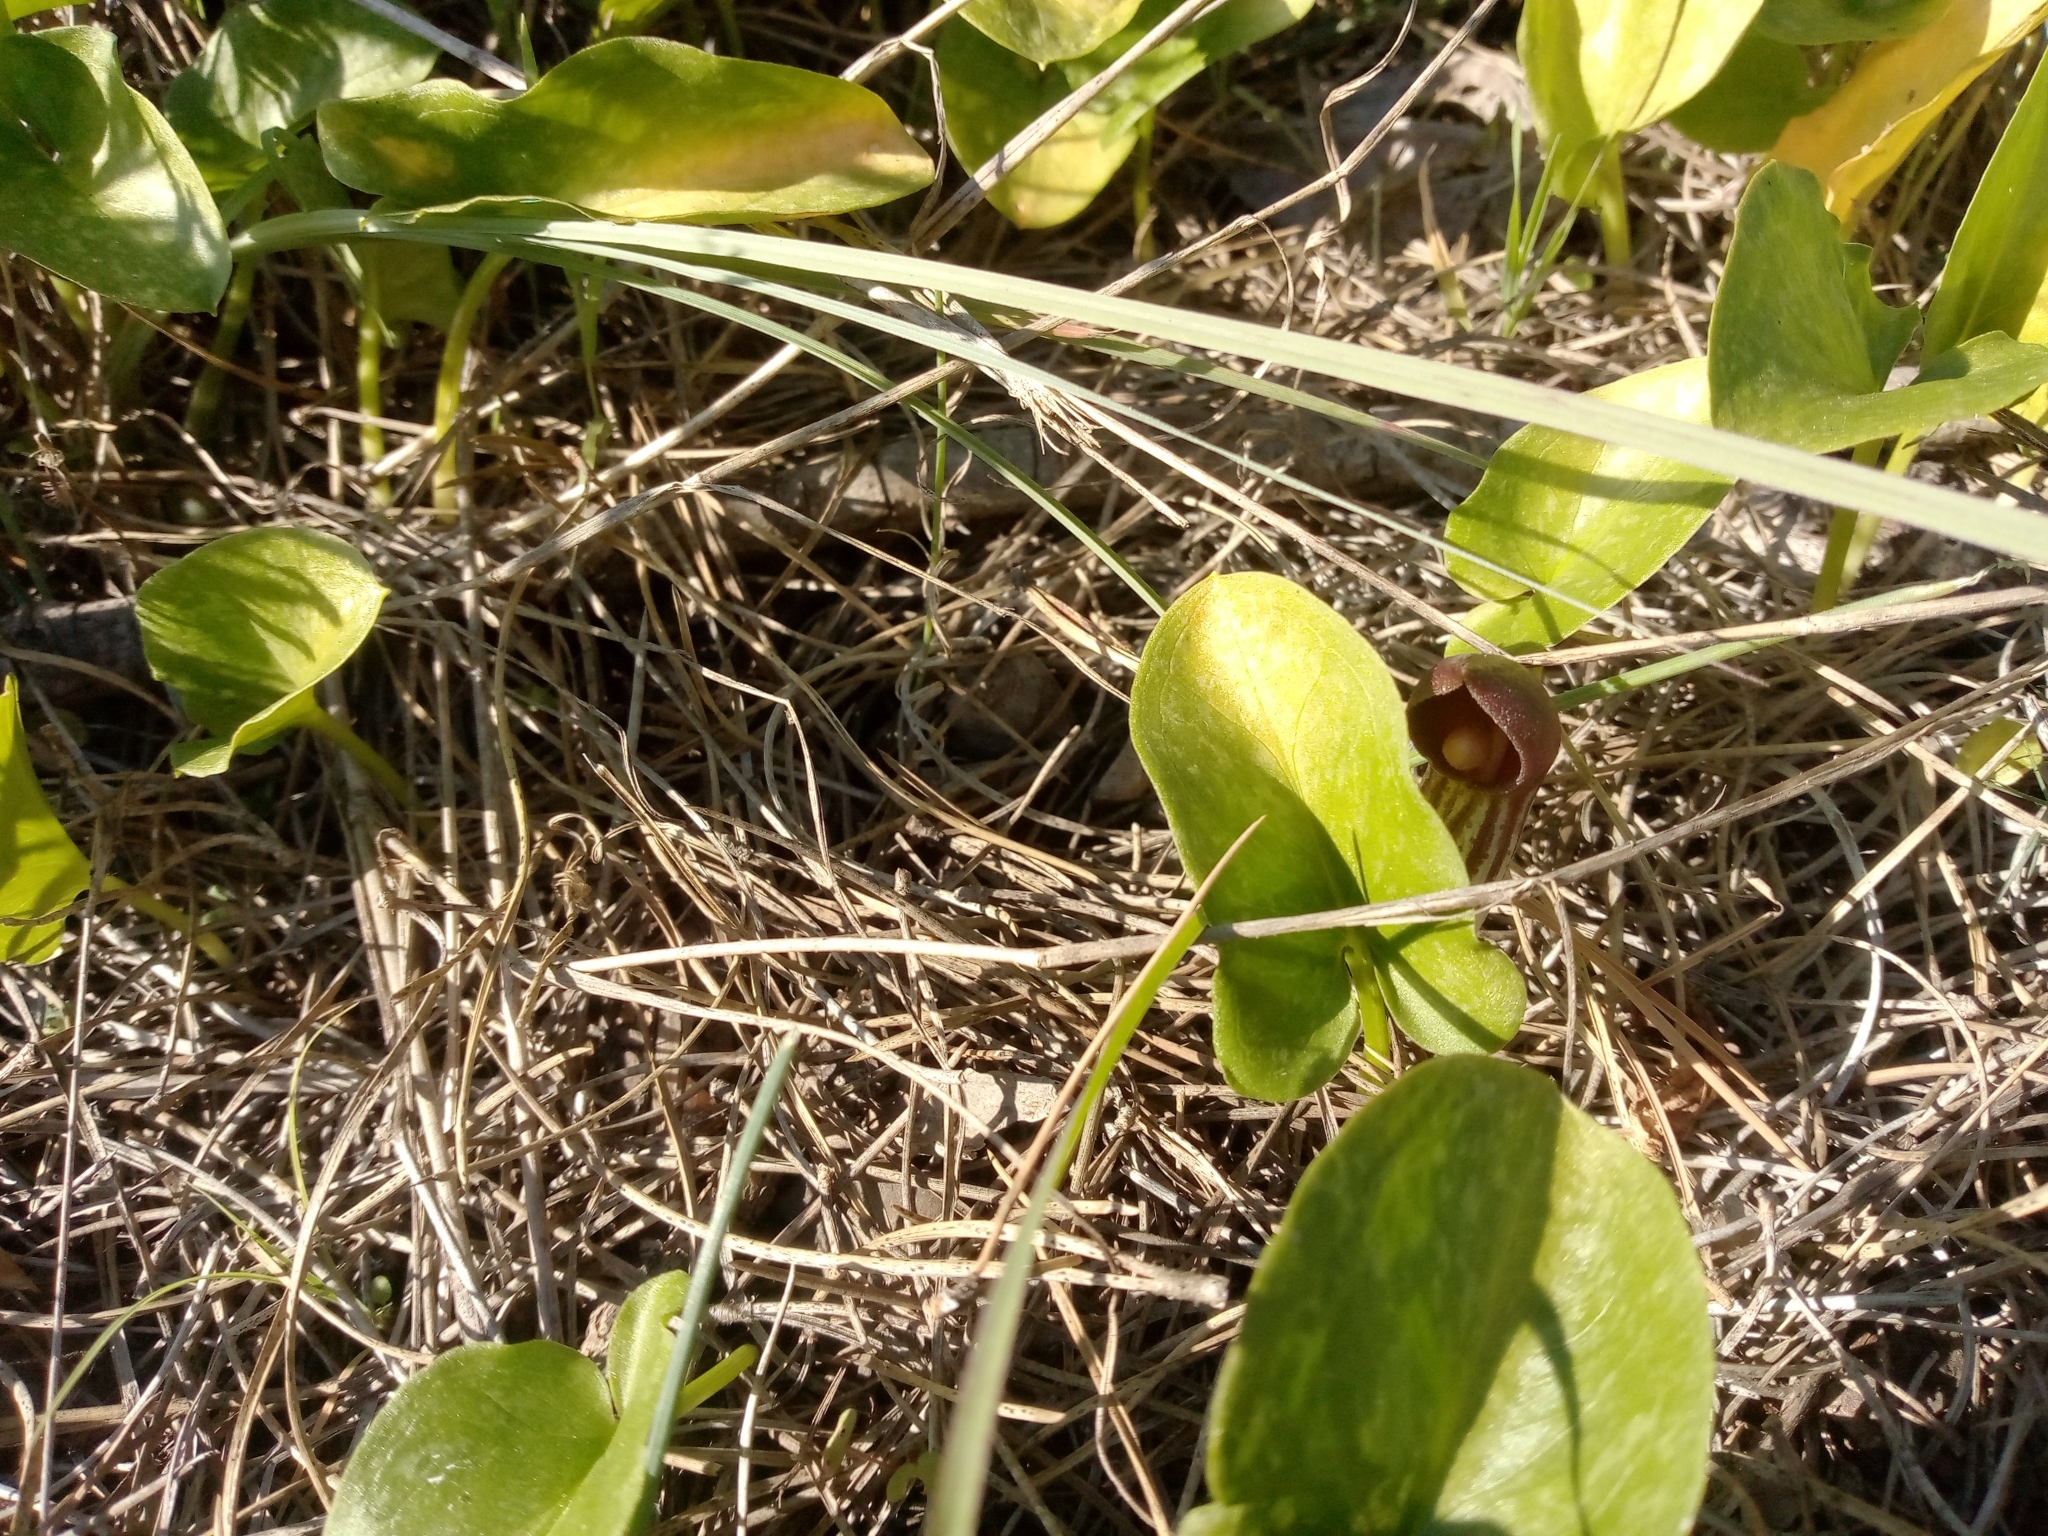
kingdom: Plantae
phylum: Tracheophyta
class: Liliopsida
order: Alismatales
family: Araceae
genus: Arisarum
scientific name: Arisarum simorrhinum
